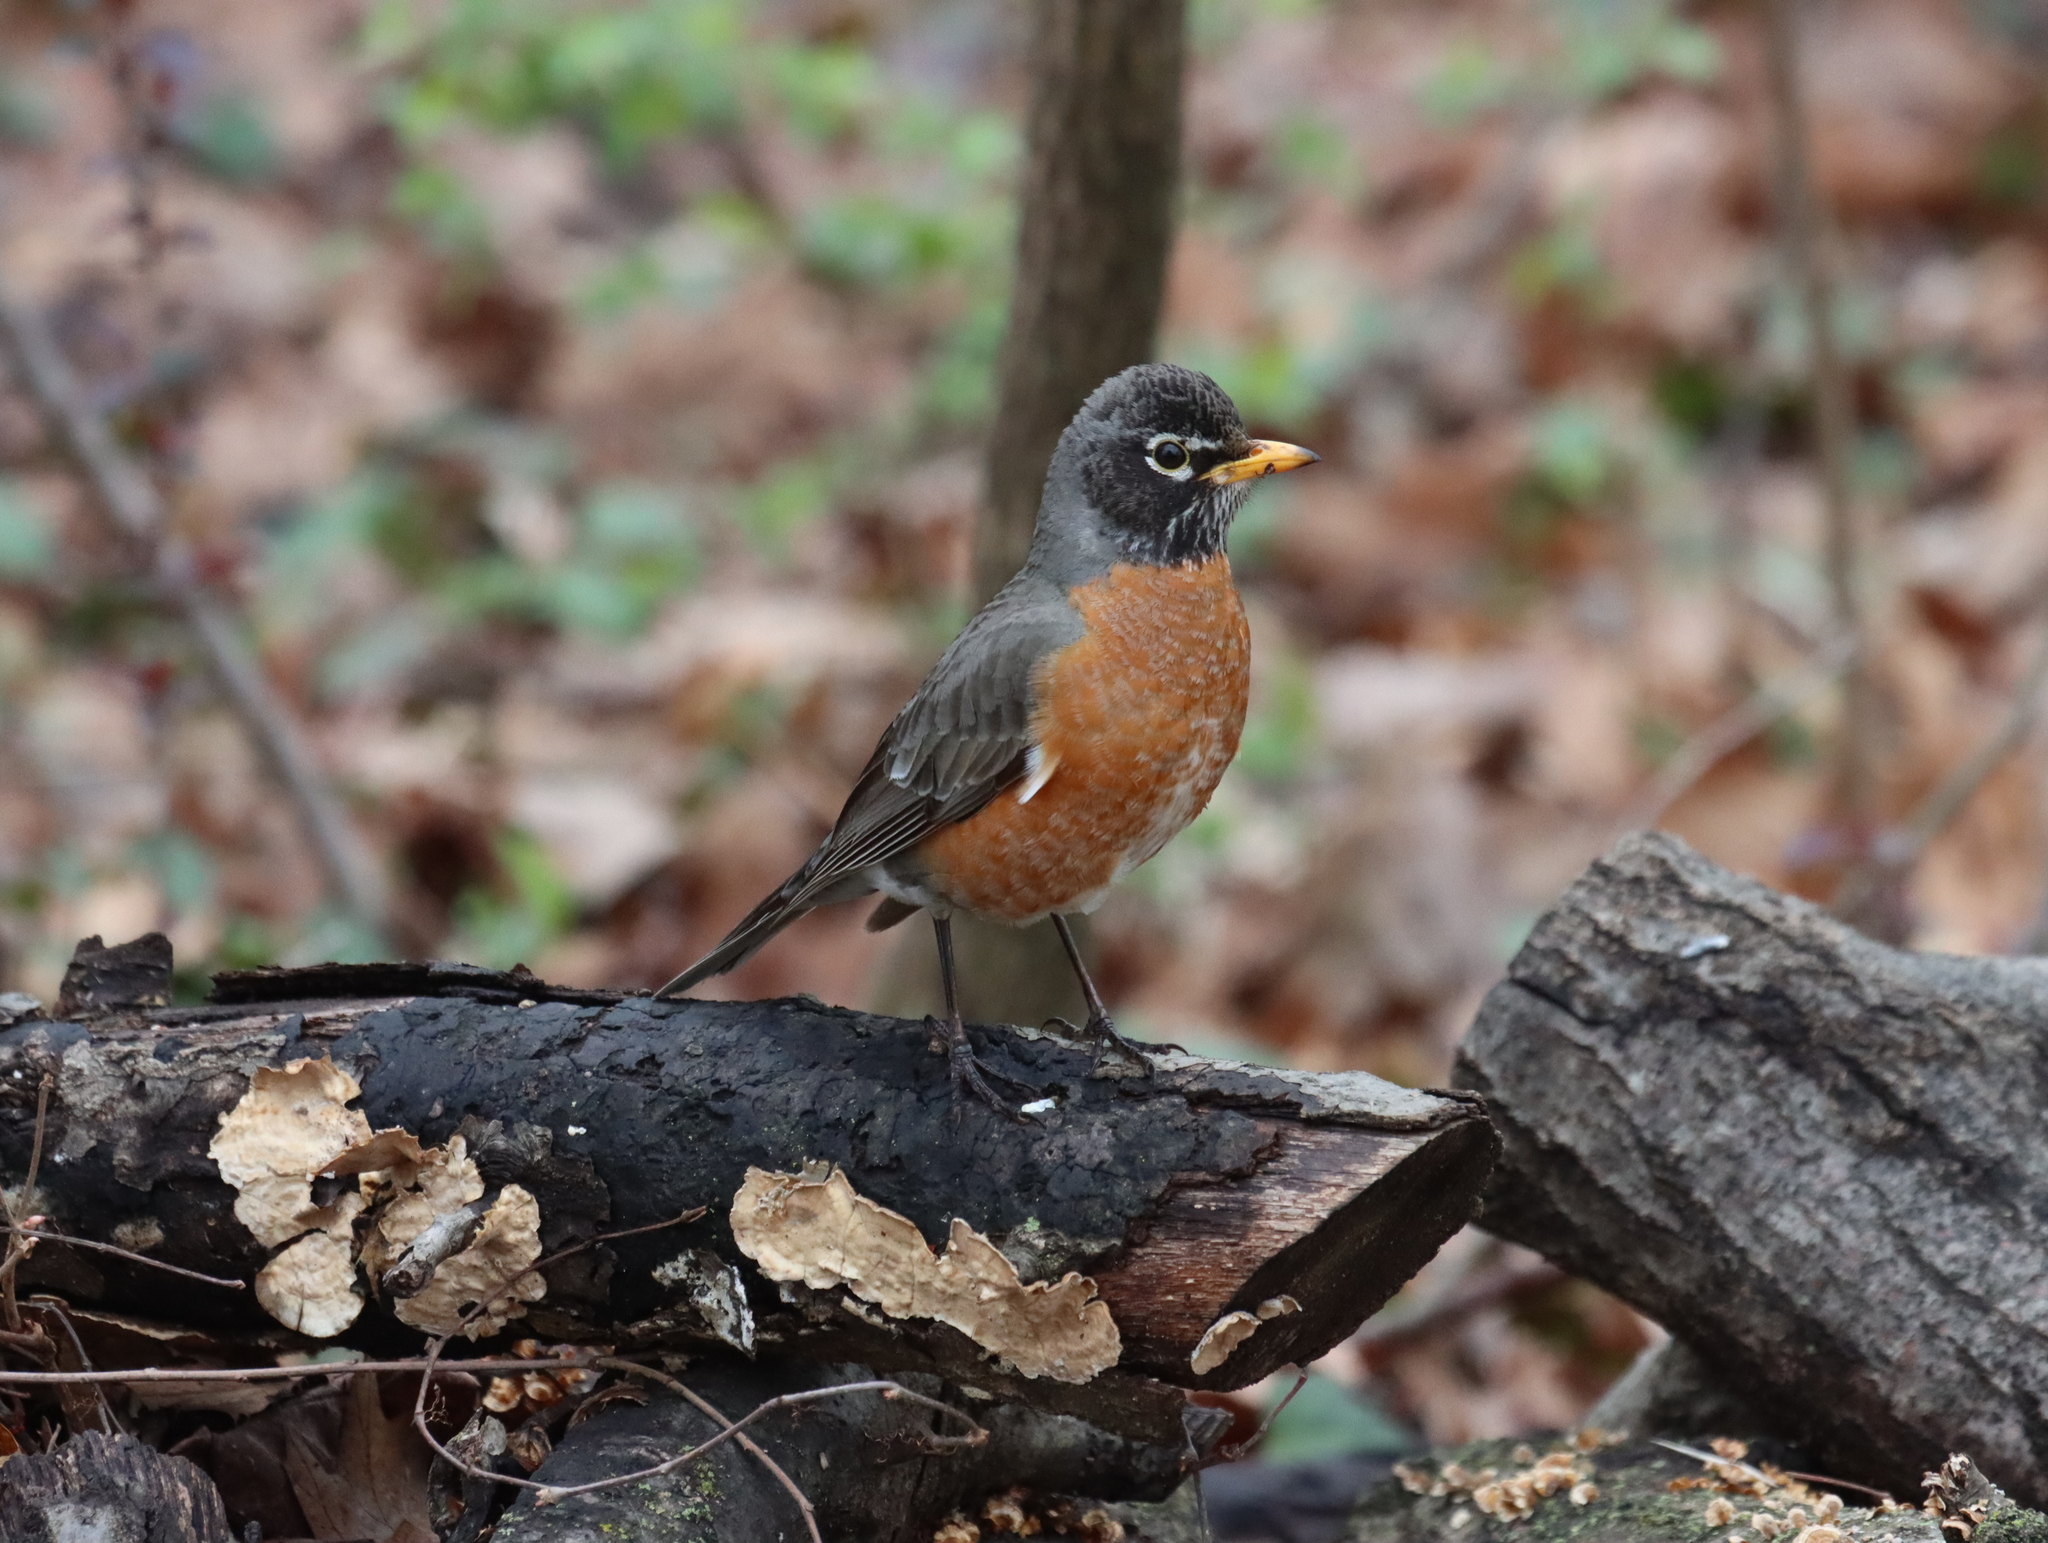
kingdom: Animalia
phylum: Chordata
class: Aves
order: Passeriformes
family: Turdidae
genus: Turdus
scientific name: Turdus migratorius
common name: American robin
